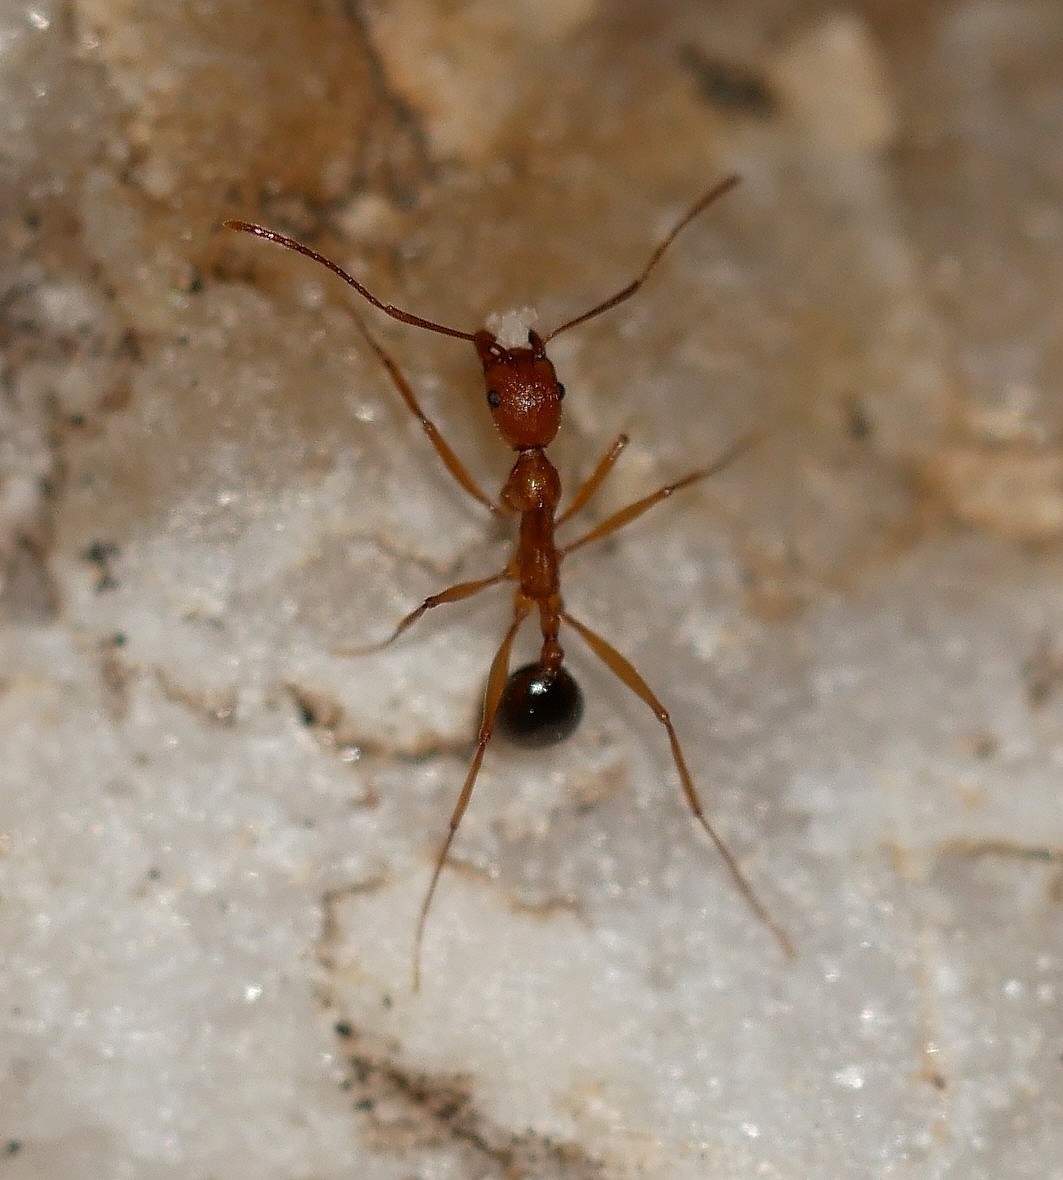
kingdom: Animalia
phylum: Arthropoda
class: Insecta
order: Hymenoptera
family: Formicidae
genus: Aphaenogaster
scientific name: Aphaenogaster
